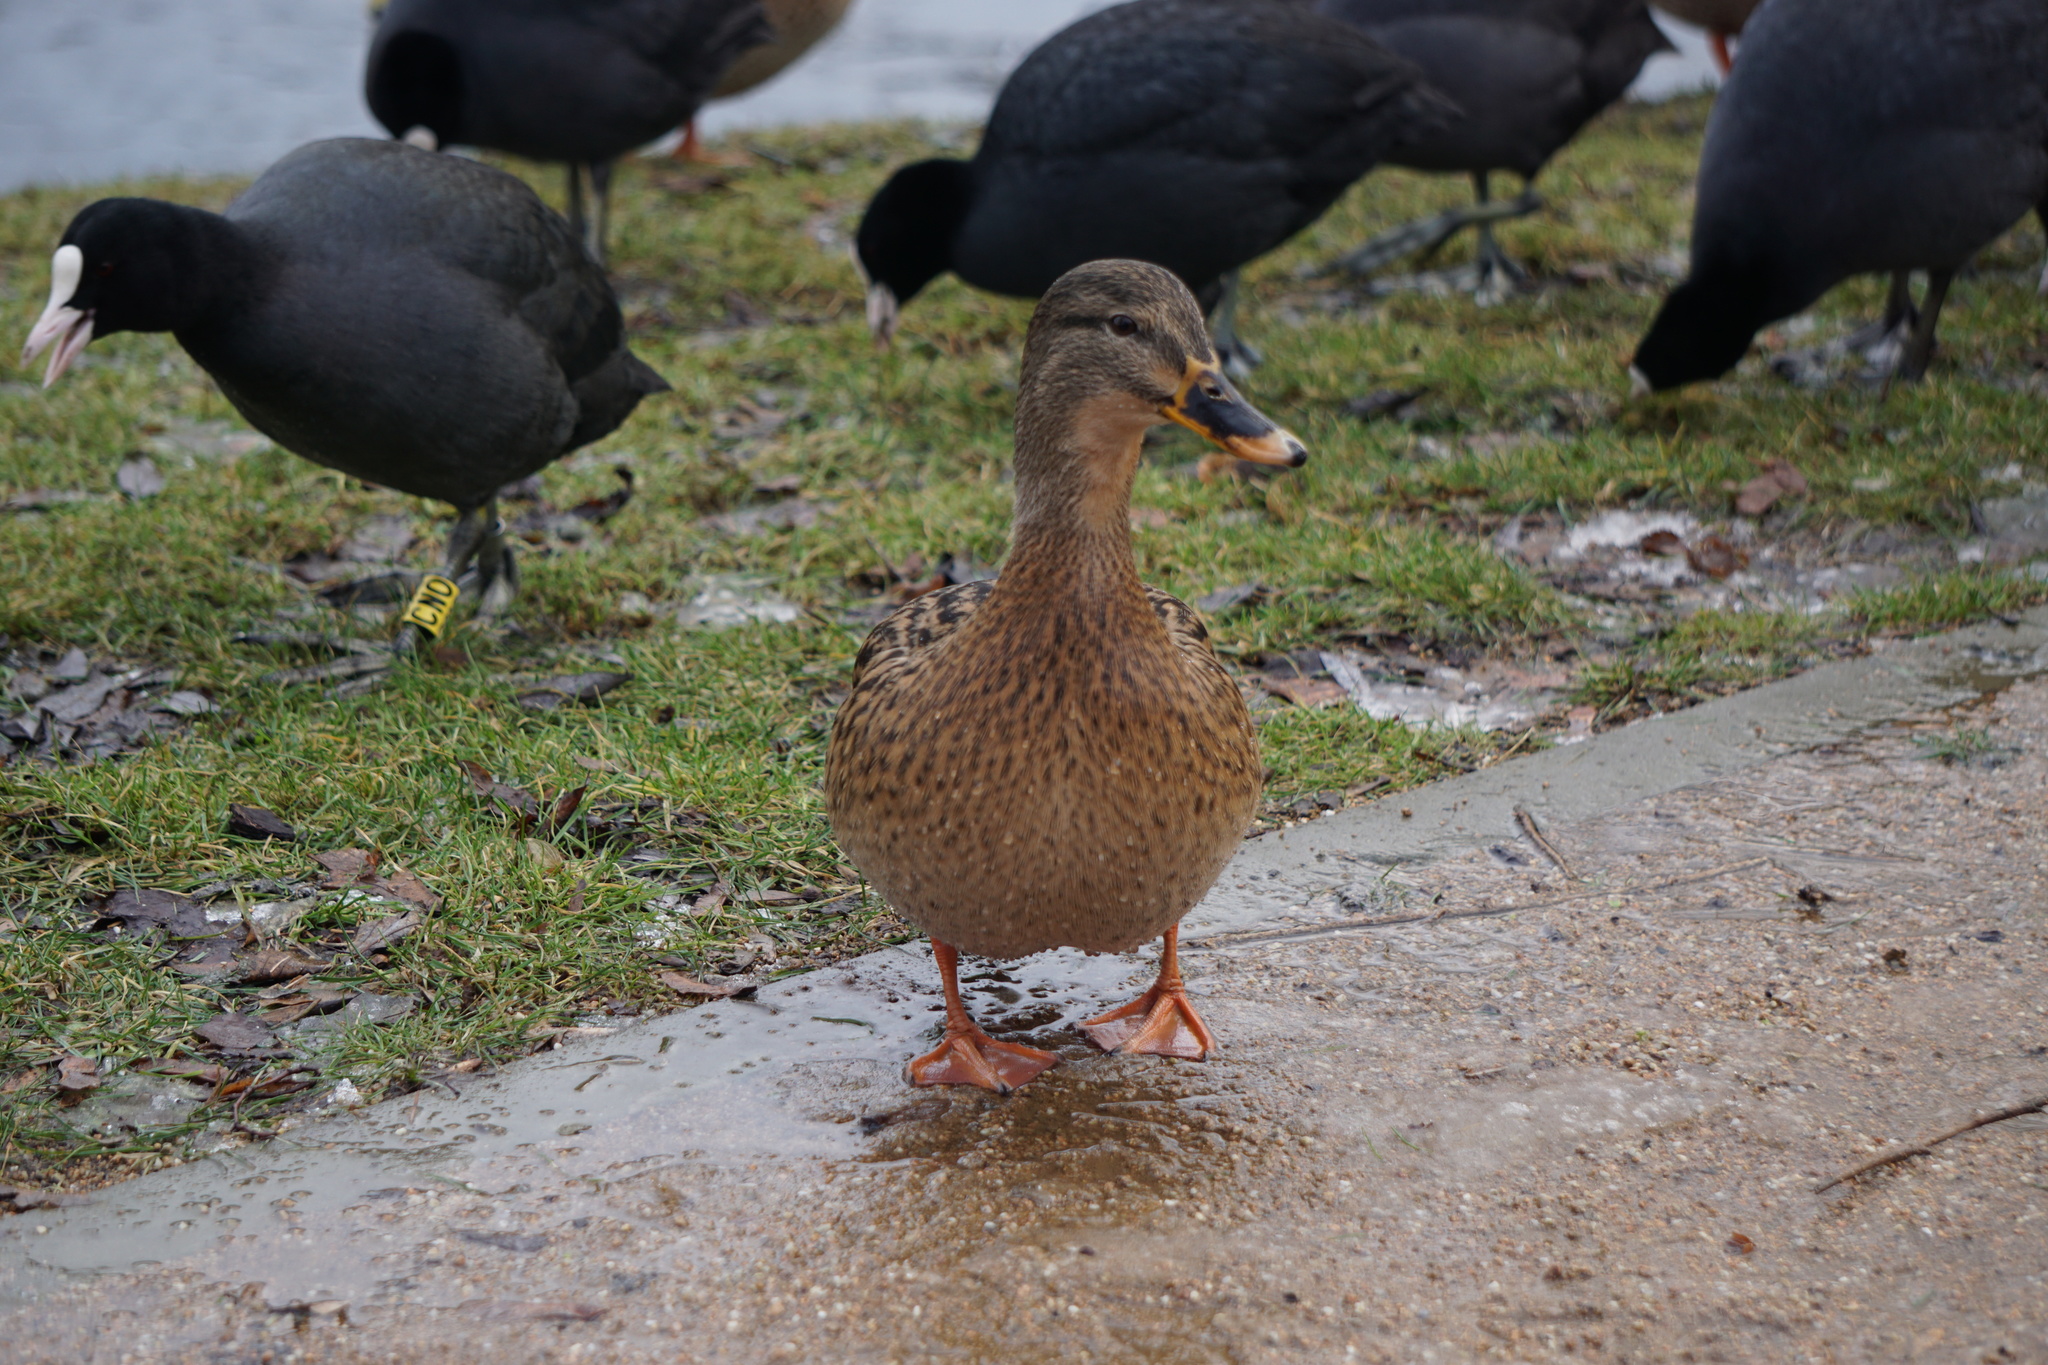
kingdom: Animalia
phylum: Chordata
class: Aves
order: Anseriformes
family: Anatidae
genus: Anas
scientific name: Anas platyrhynchos
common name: Mallard
